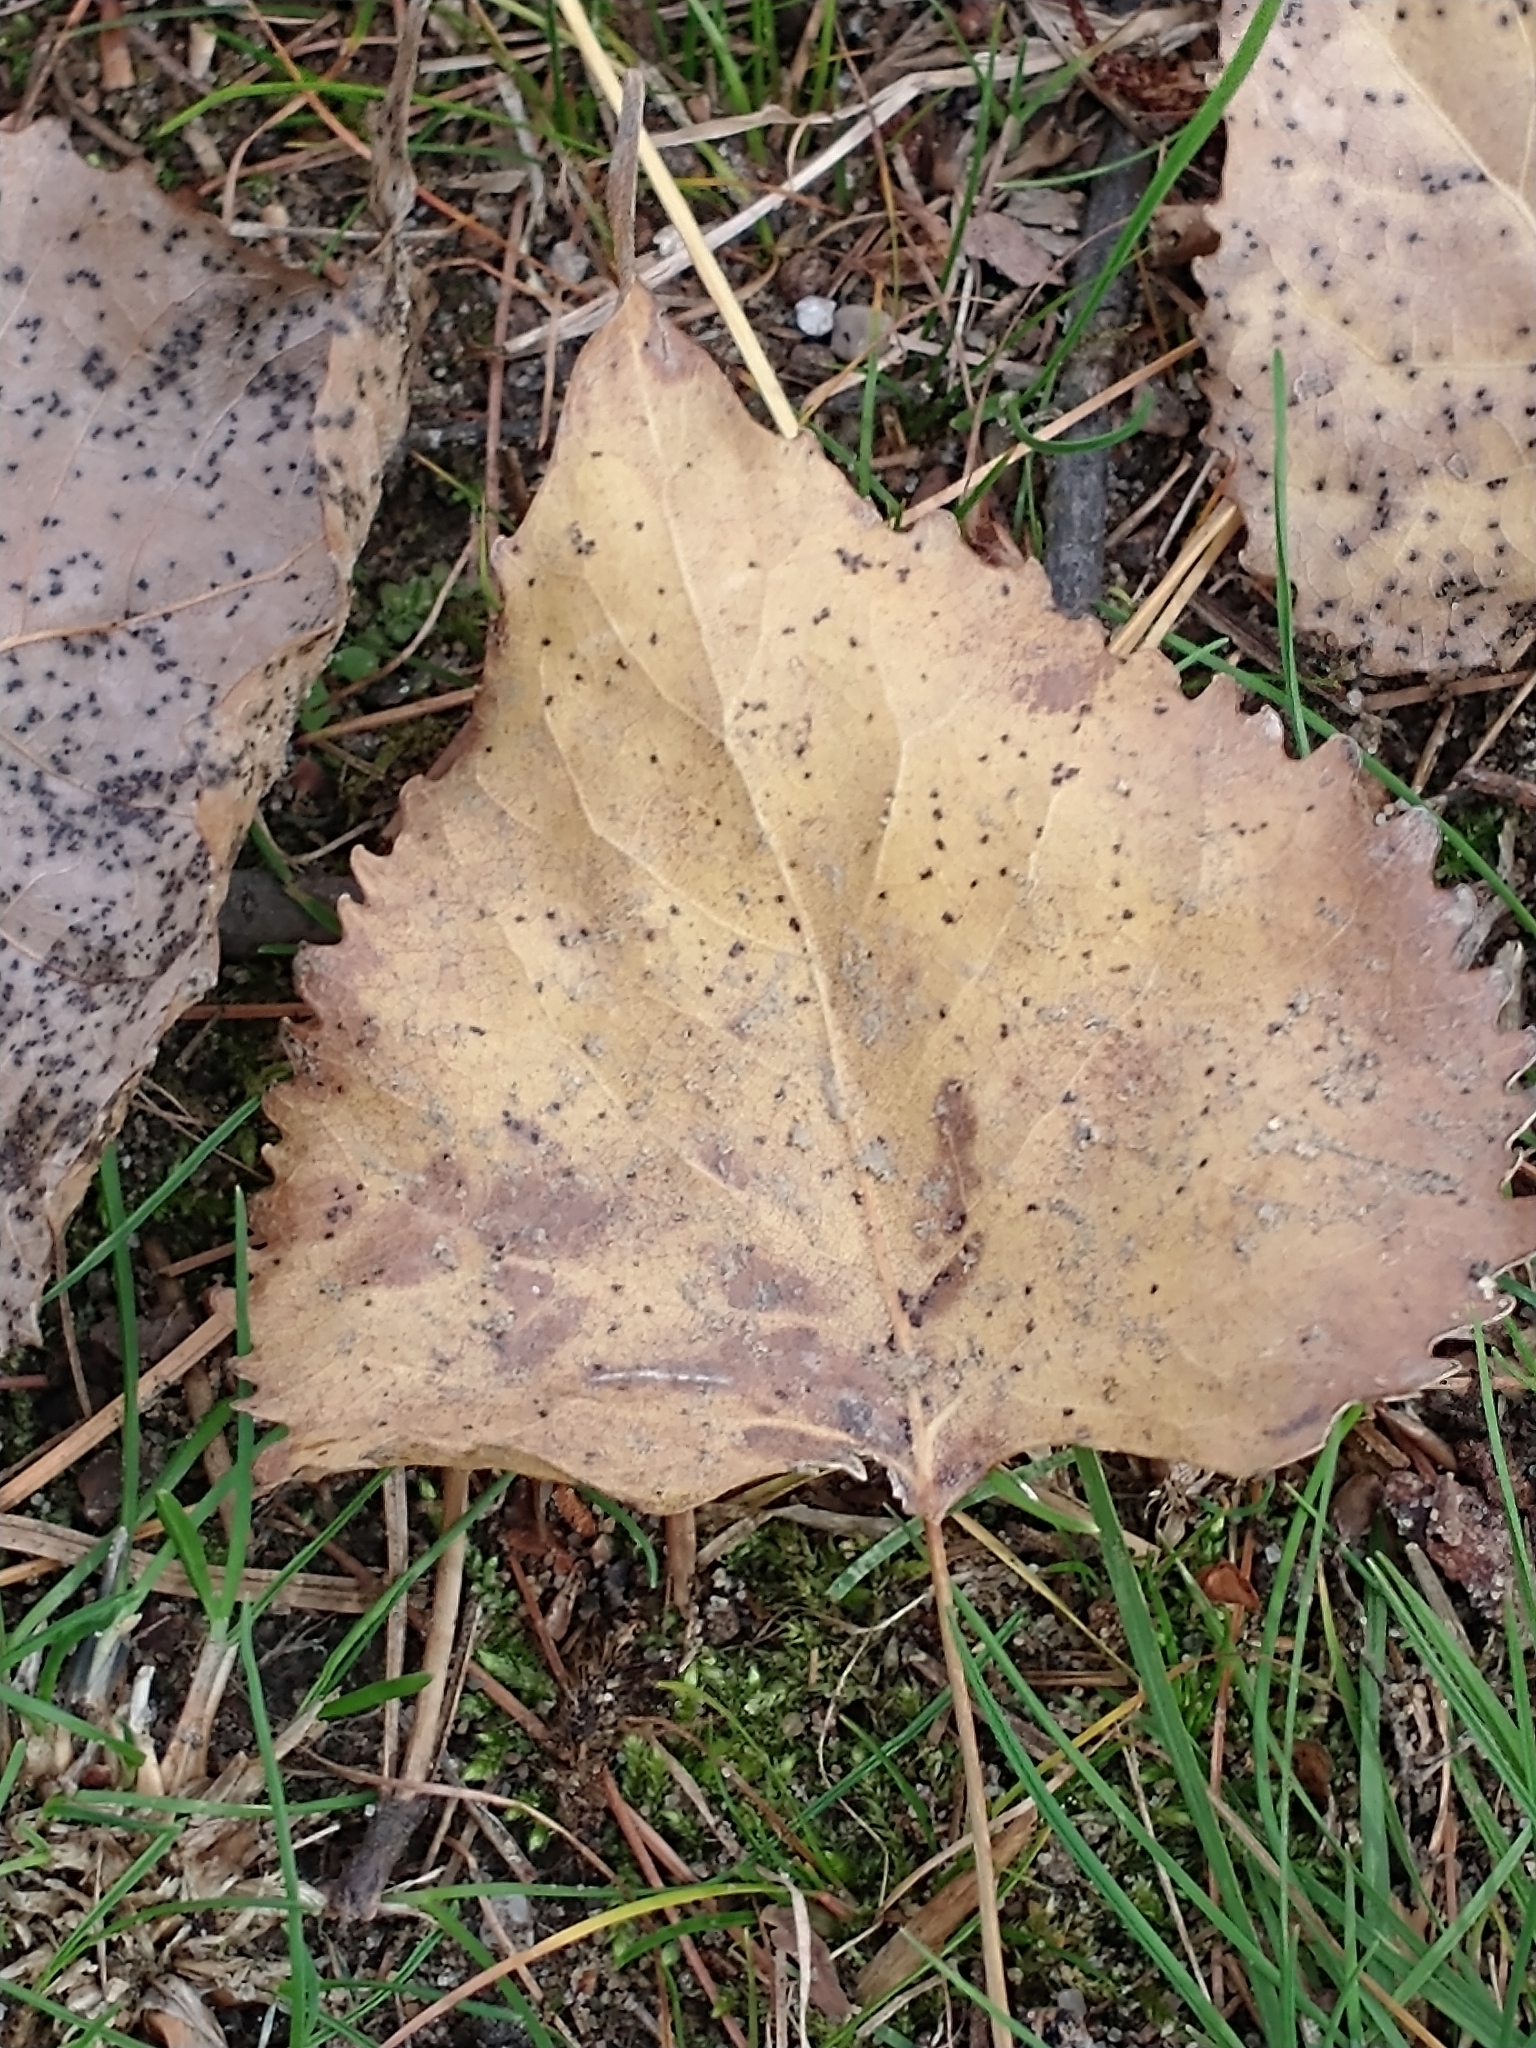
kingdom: Plantae
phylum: Tracheophyta
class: Magnoliopsida
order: Malpighiales
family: Salicaceae
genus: Populus
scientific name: Populus deltoides
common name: Eastern cottonwood
